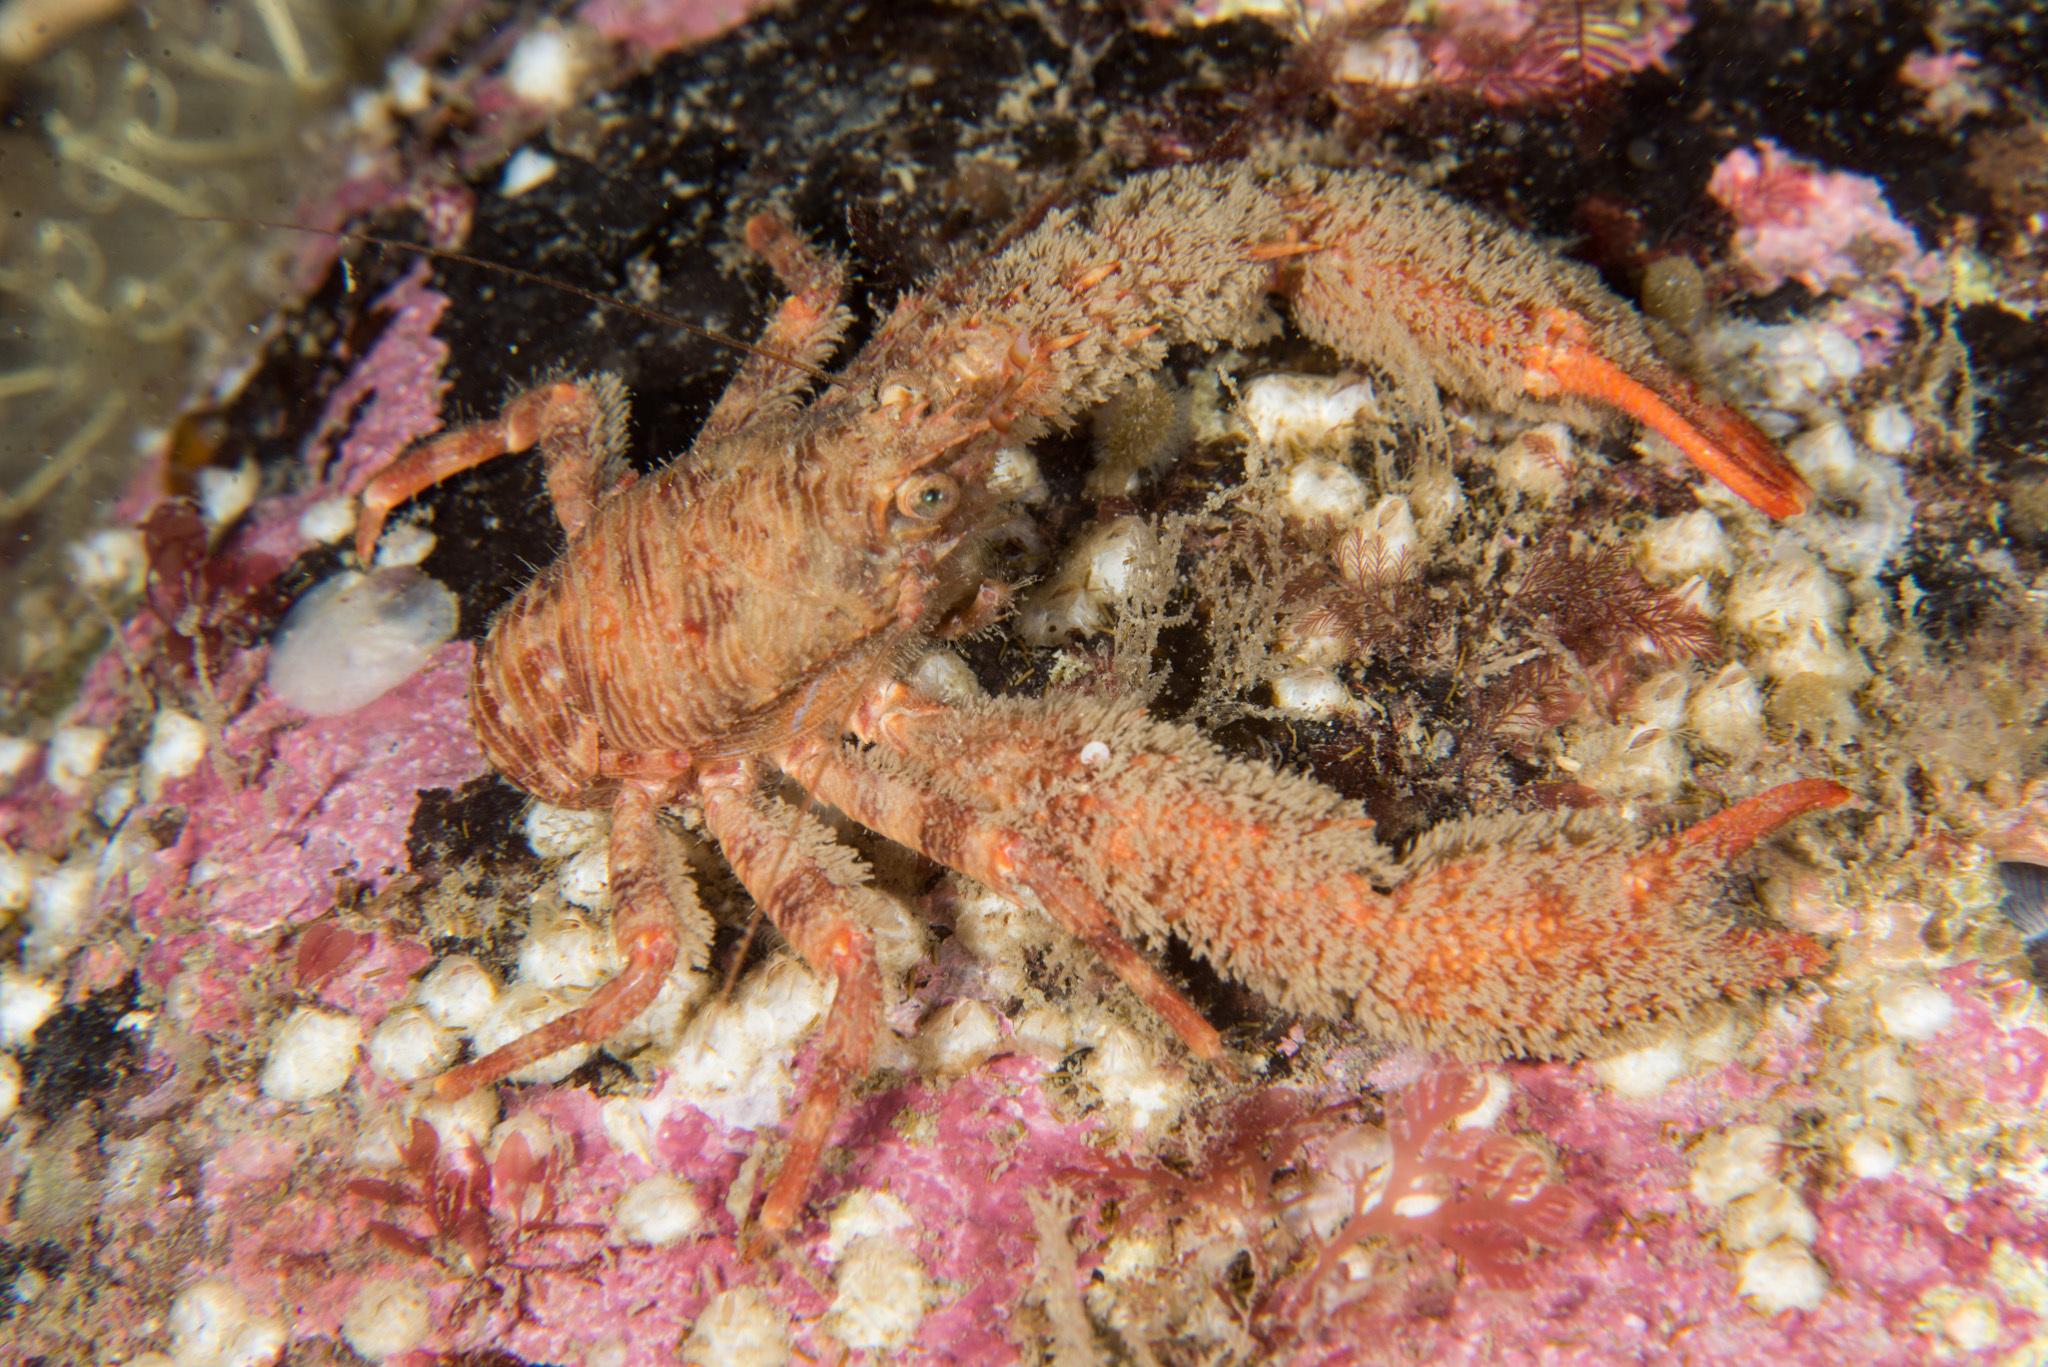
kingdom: Animalia
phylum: Arthropoda
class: Malacostraca
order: Decapoda
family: Galatheidae
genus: Galathea
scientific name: Galathea nexa
